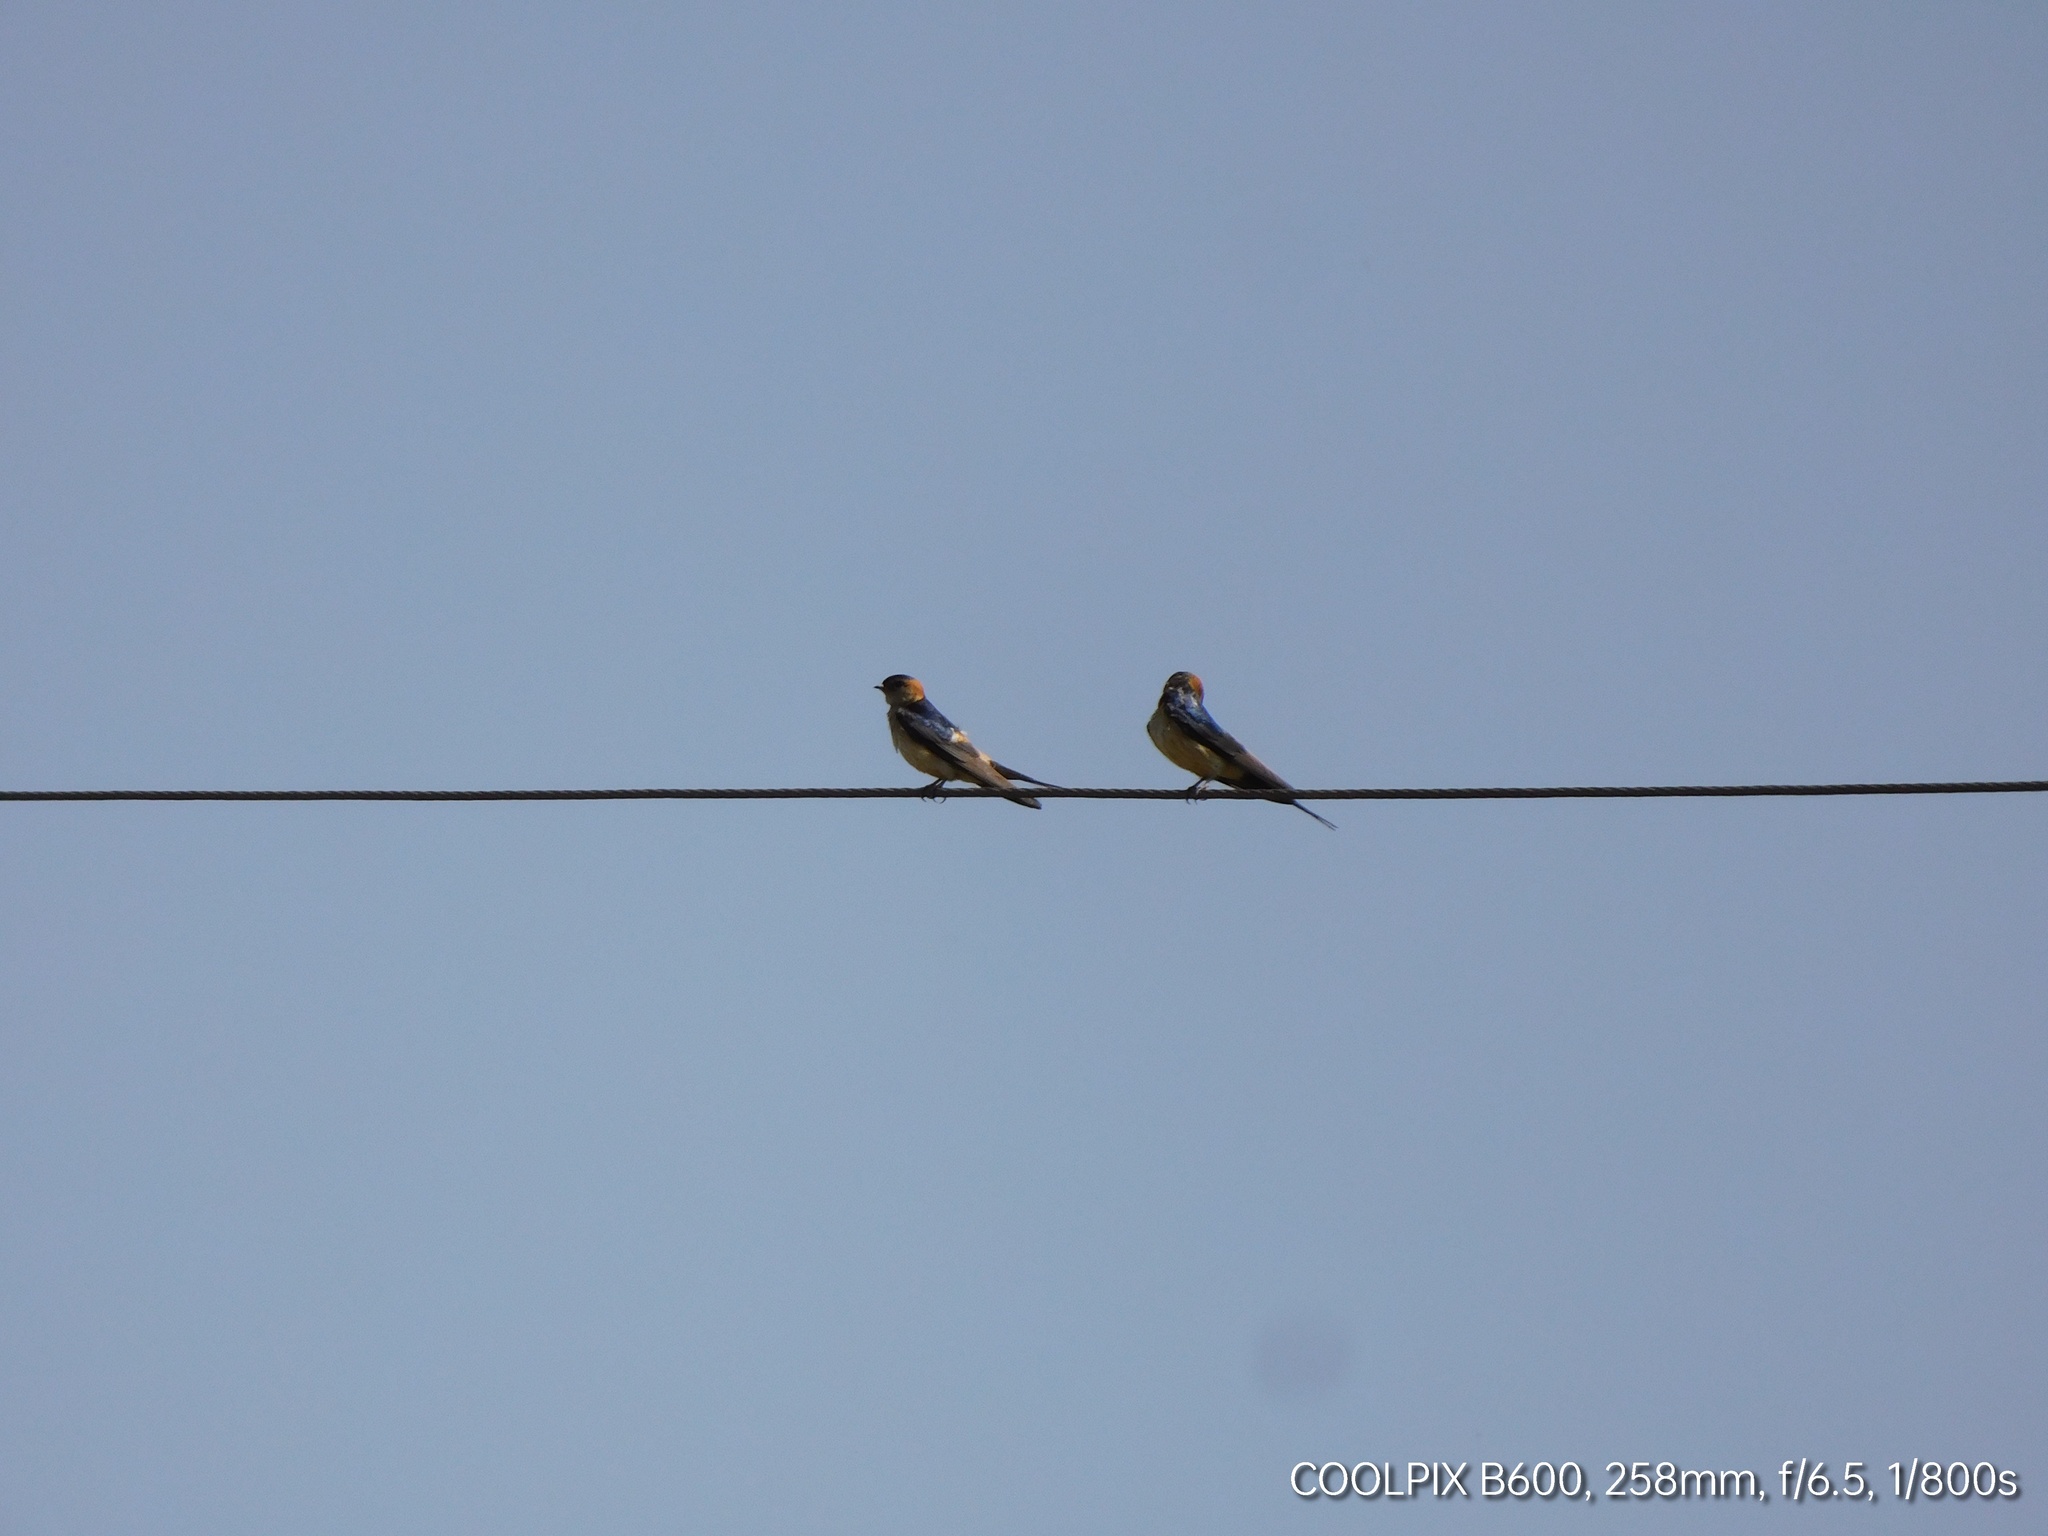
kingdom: Animalia
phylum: Chordata
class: Aves
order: Passeriformes
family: Hirundinidae
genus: Cecropis
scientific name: Cecropis daurica
